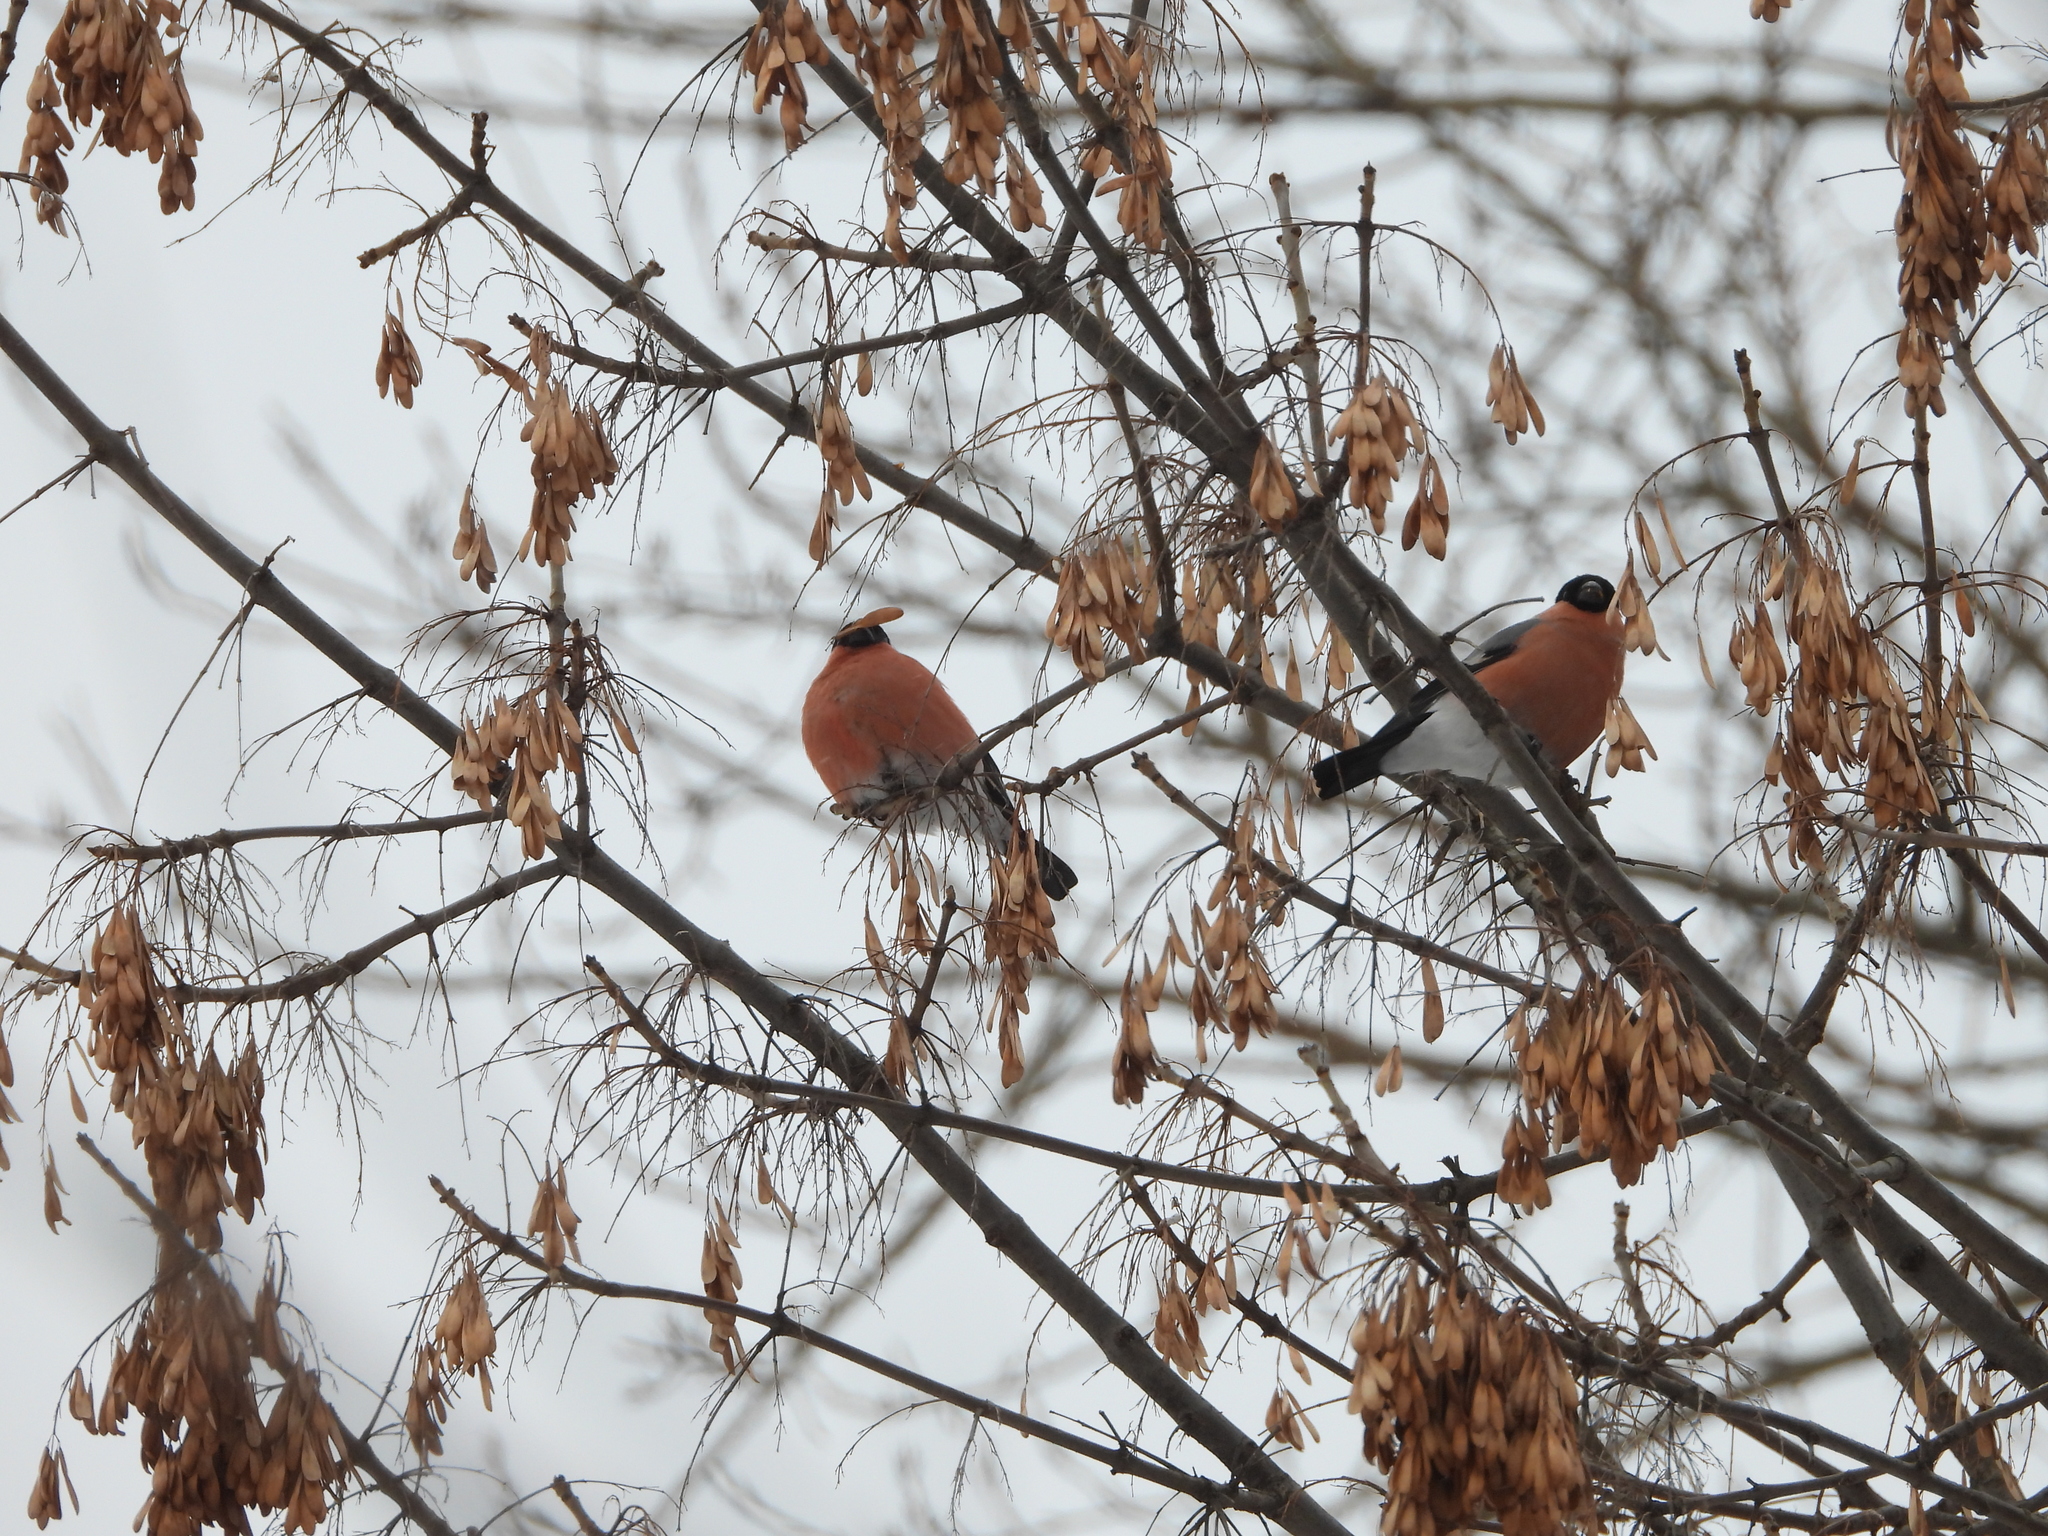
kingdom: Animalia
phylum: Chordata
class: Aves
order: Passeriformes
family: Fringillidae
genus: Pyrrhula
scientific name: Pyrrhula pyrrhula
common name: Eurasian bullfinch
